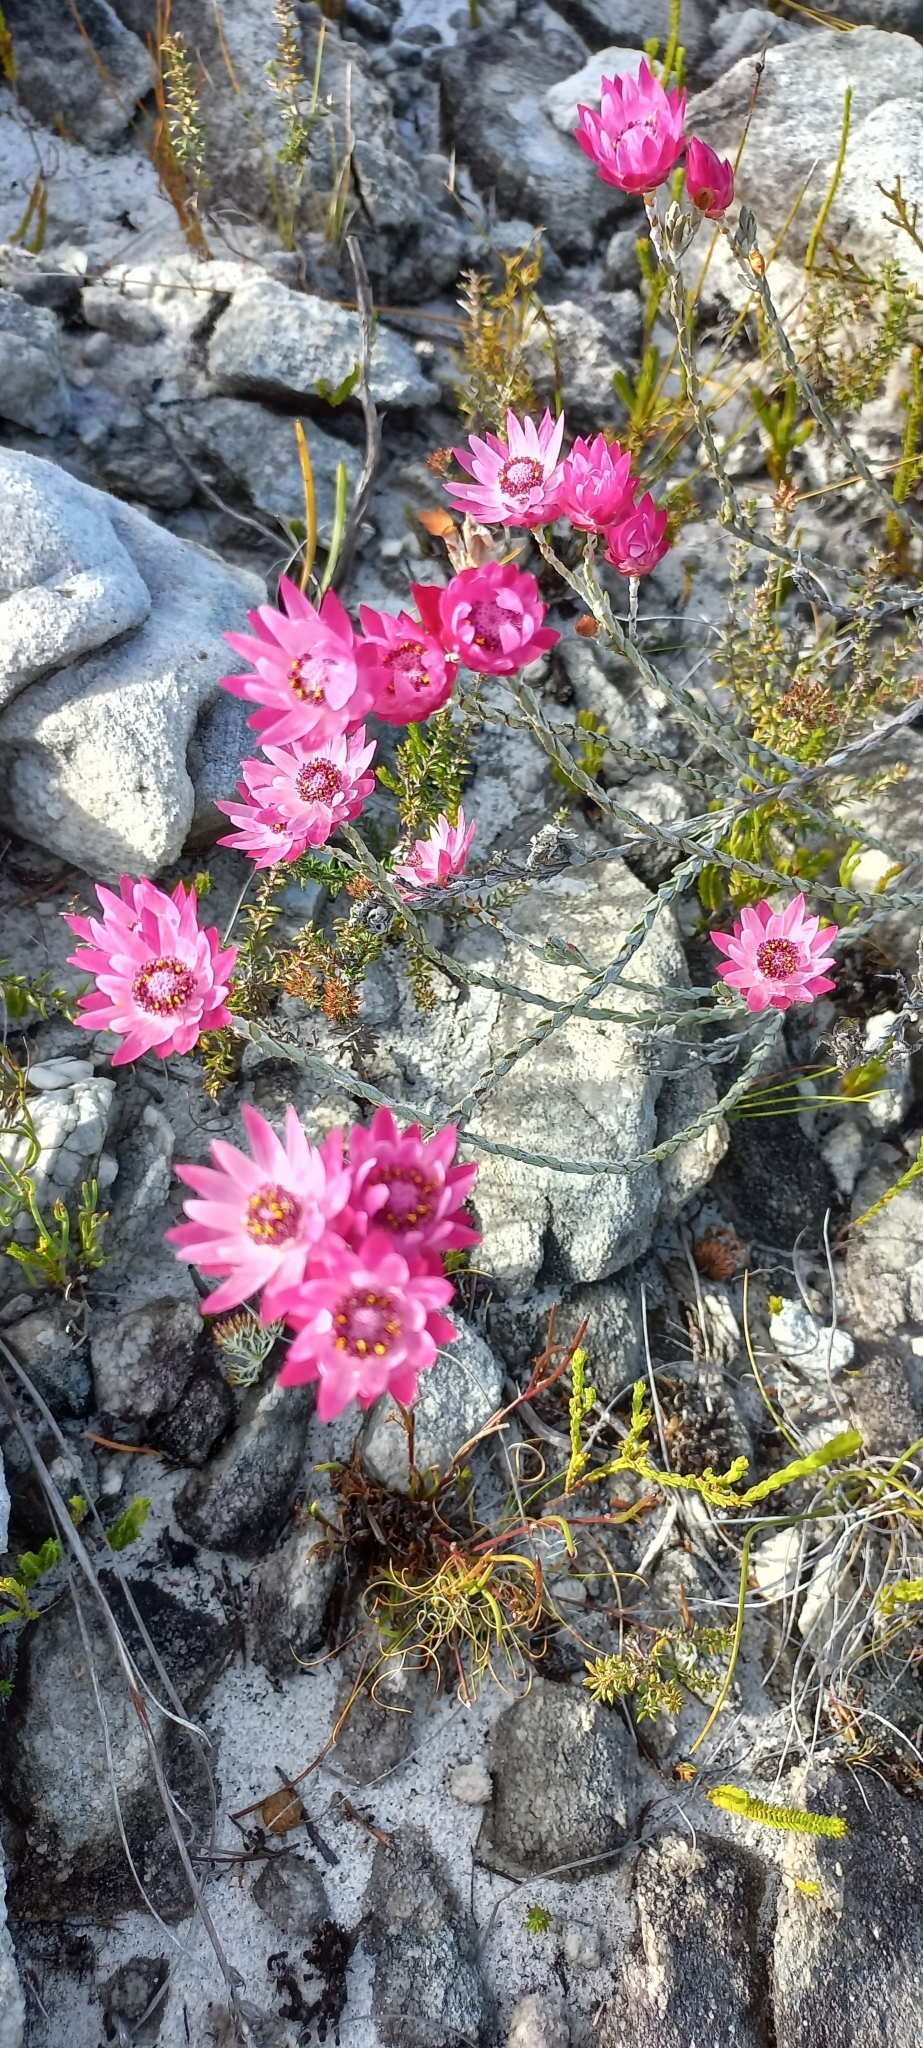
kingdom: Plantae
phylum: Tracheophyta
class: Magnoliopsida
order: Asterales
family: Asteraceae
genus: Syncarpha
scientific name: Syncarpha canescens
